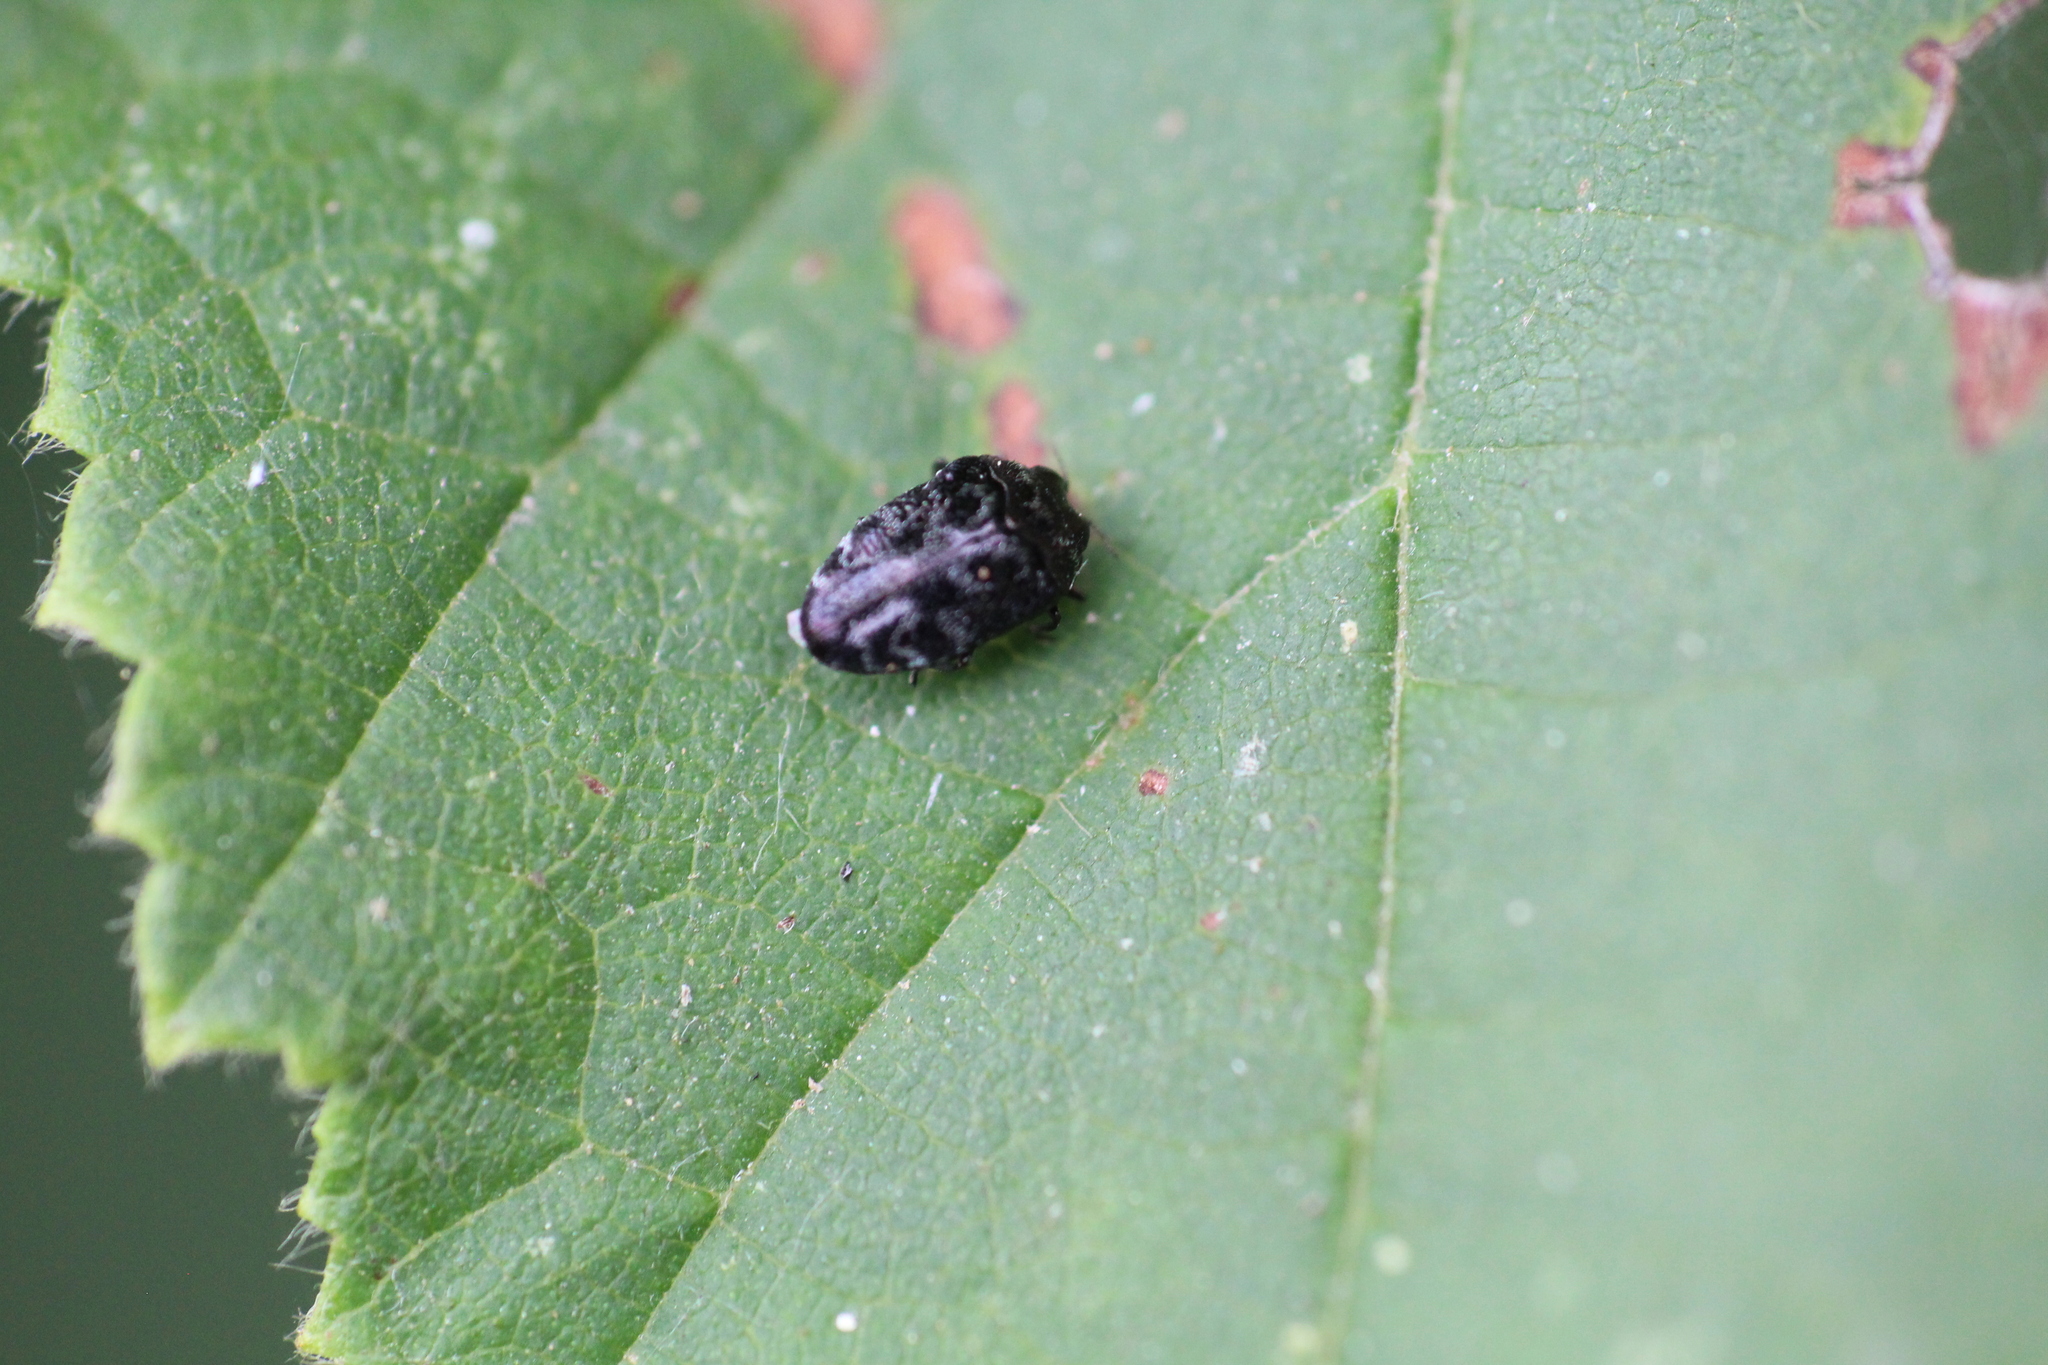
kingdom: Animalia
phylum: Arthropoda
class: Insecta
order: Coleoptera
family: Buprestidae
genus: Trachys
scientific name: Trachys minutus
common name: Metallic wood-boring beetle
